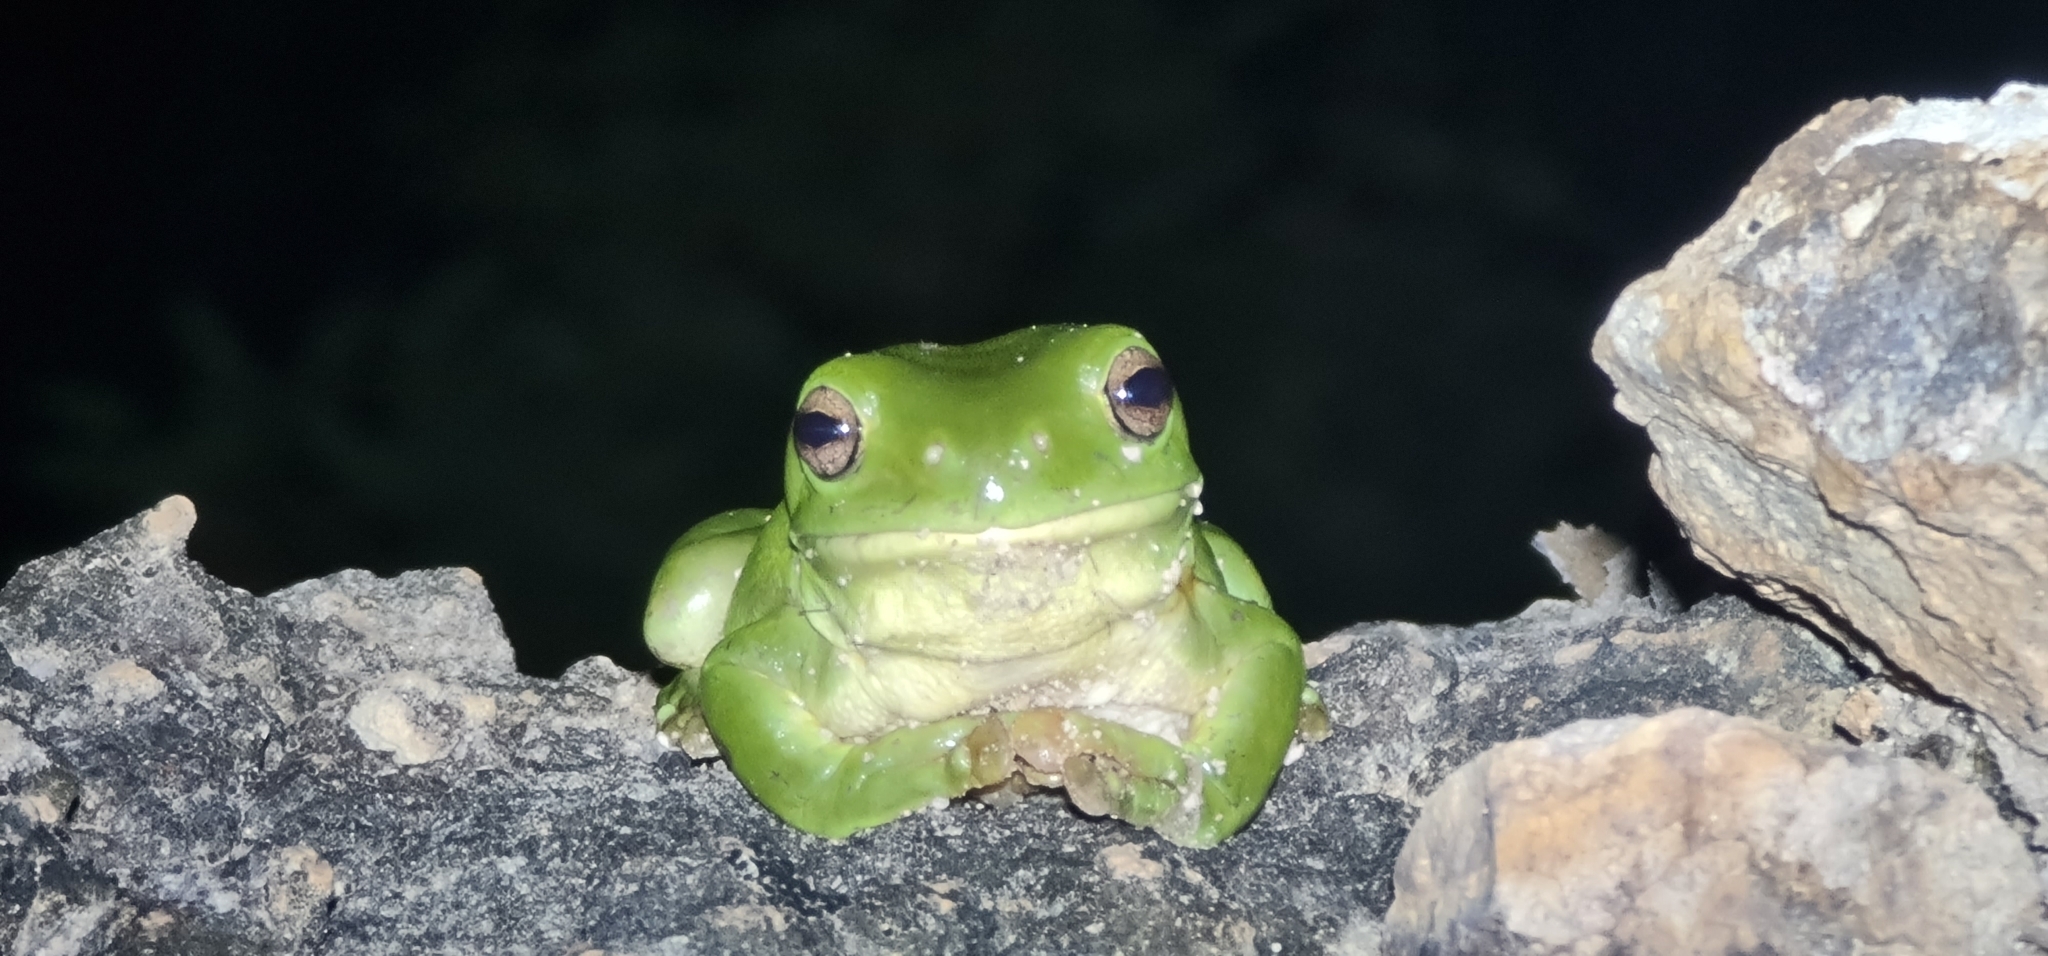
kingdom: Animalia
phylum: Chordata
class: Amphibia
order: Anura
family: Pelodryadidae
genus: Ranoidea
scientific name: Ranoidea caerulea
